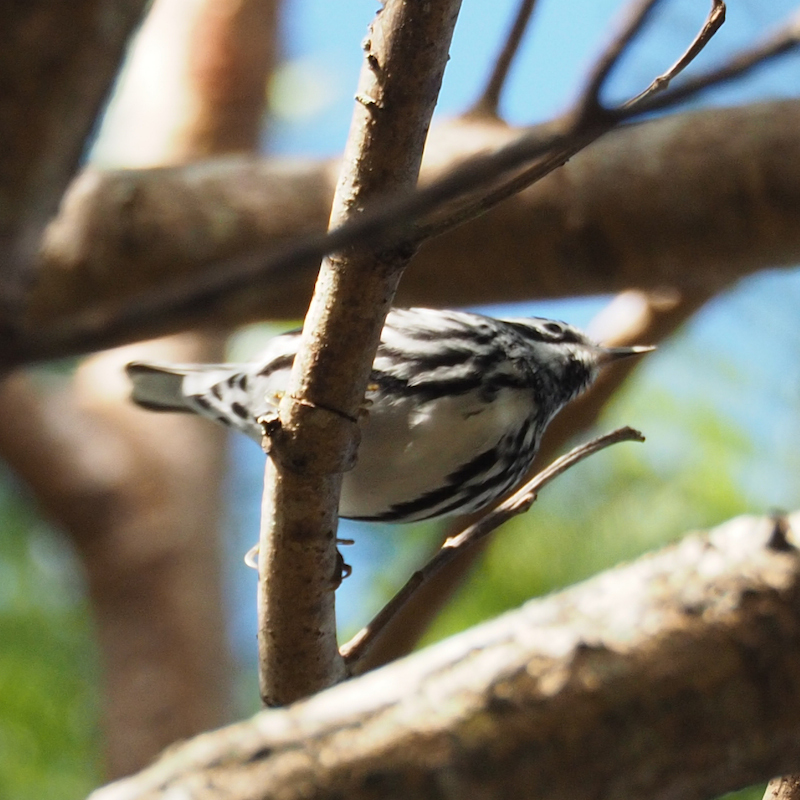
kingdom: Animalia
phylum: Chordata
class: Aves
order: Passeriformes
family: Parulidae
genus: Mniotilta
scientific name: Mniotilta varia
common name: Black-and-white warbler
